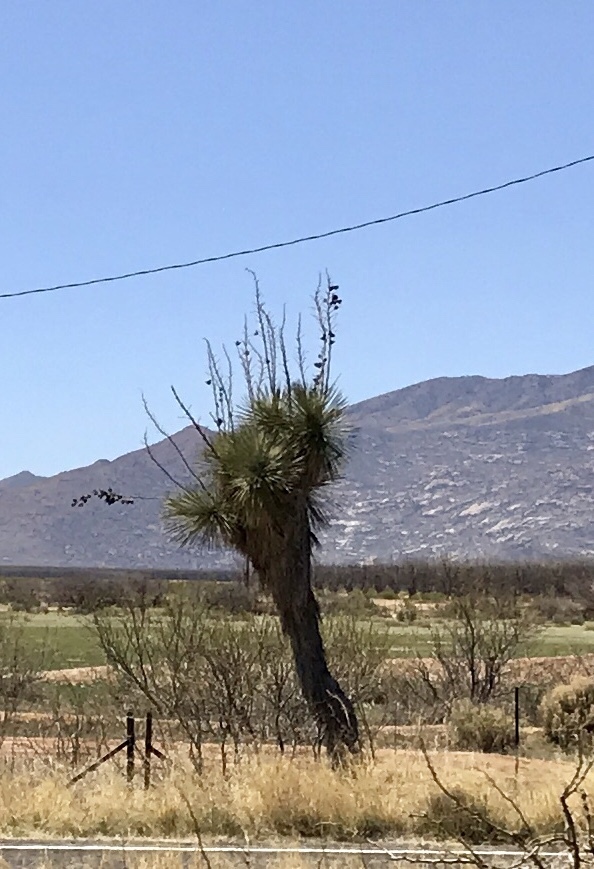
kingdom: Plantae
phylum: Tracheophyta
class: Liliopsida
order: Asparagales
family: Asparagaceae
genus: Yucca
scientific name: Yucca elata
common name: Palmella
